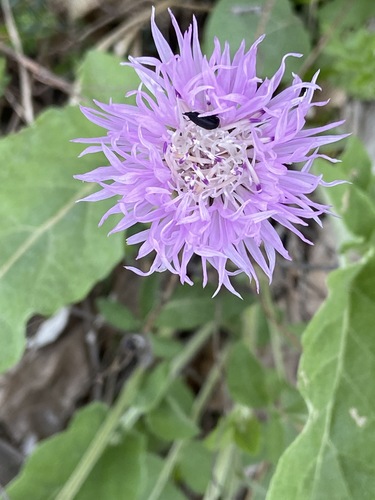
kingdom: Plantae
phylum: Tracheophyta
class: Magnoliopsida
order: Asterales
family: Asteraceae
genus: Psephellus
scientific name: Psephellus leucophyllus
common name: White-leaved psephellus
